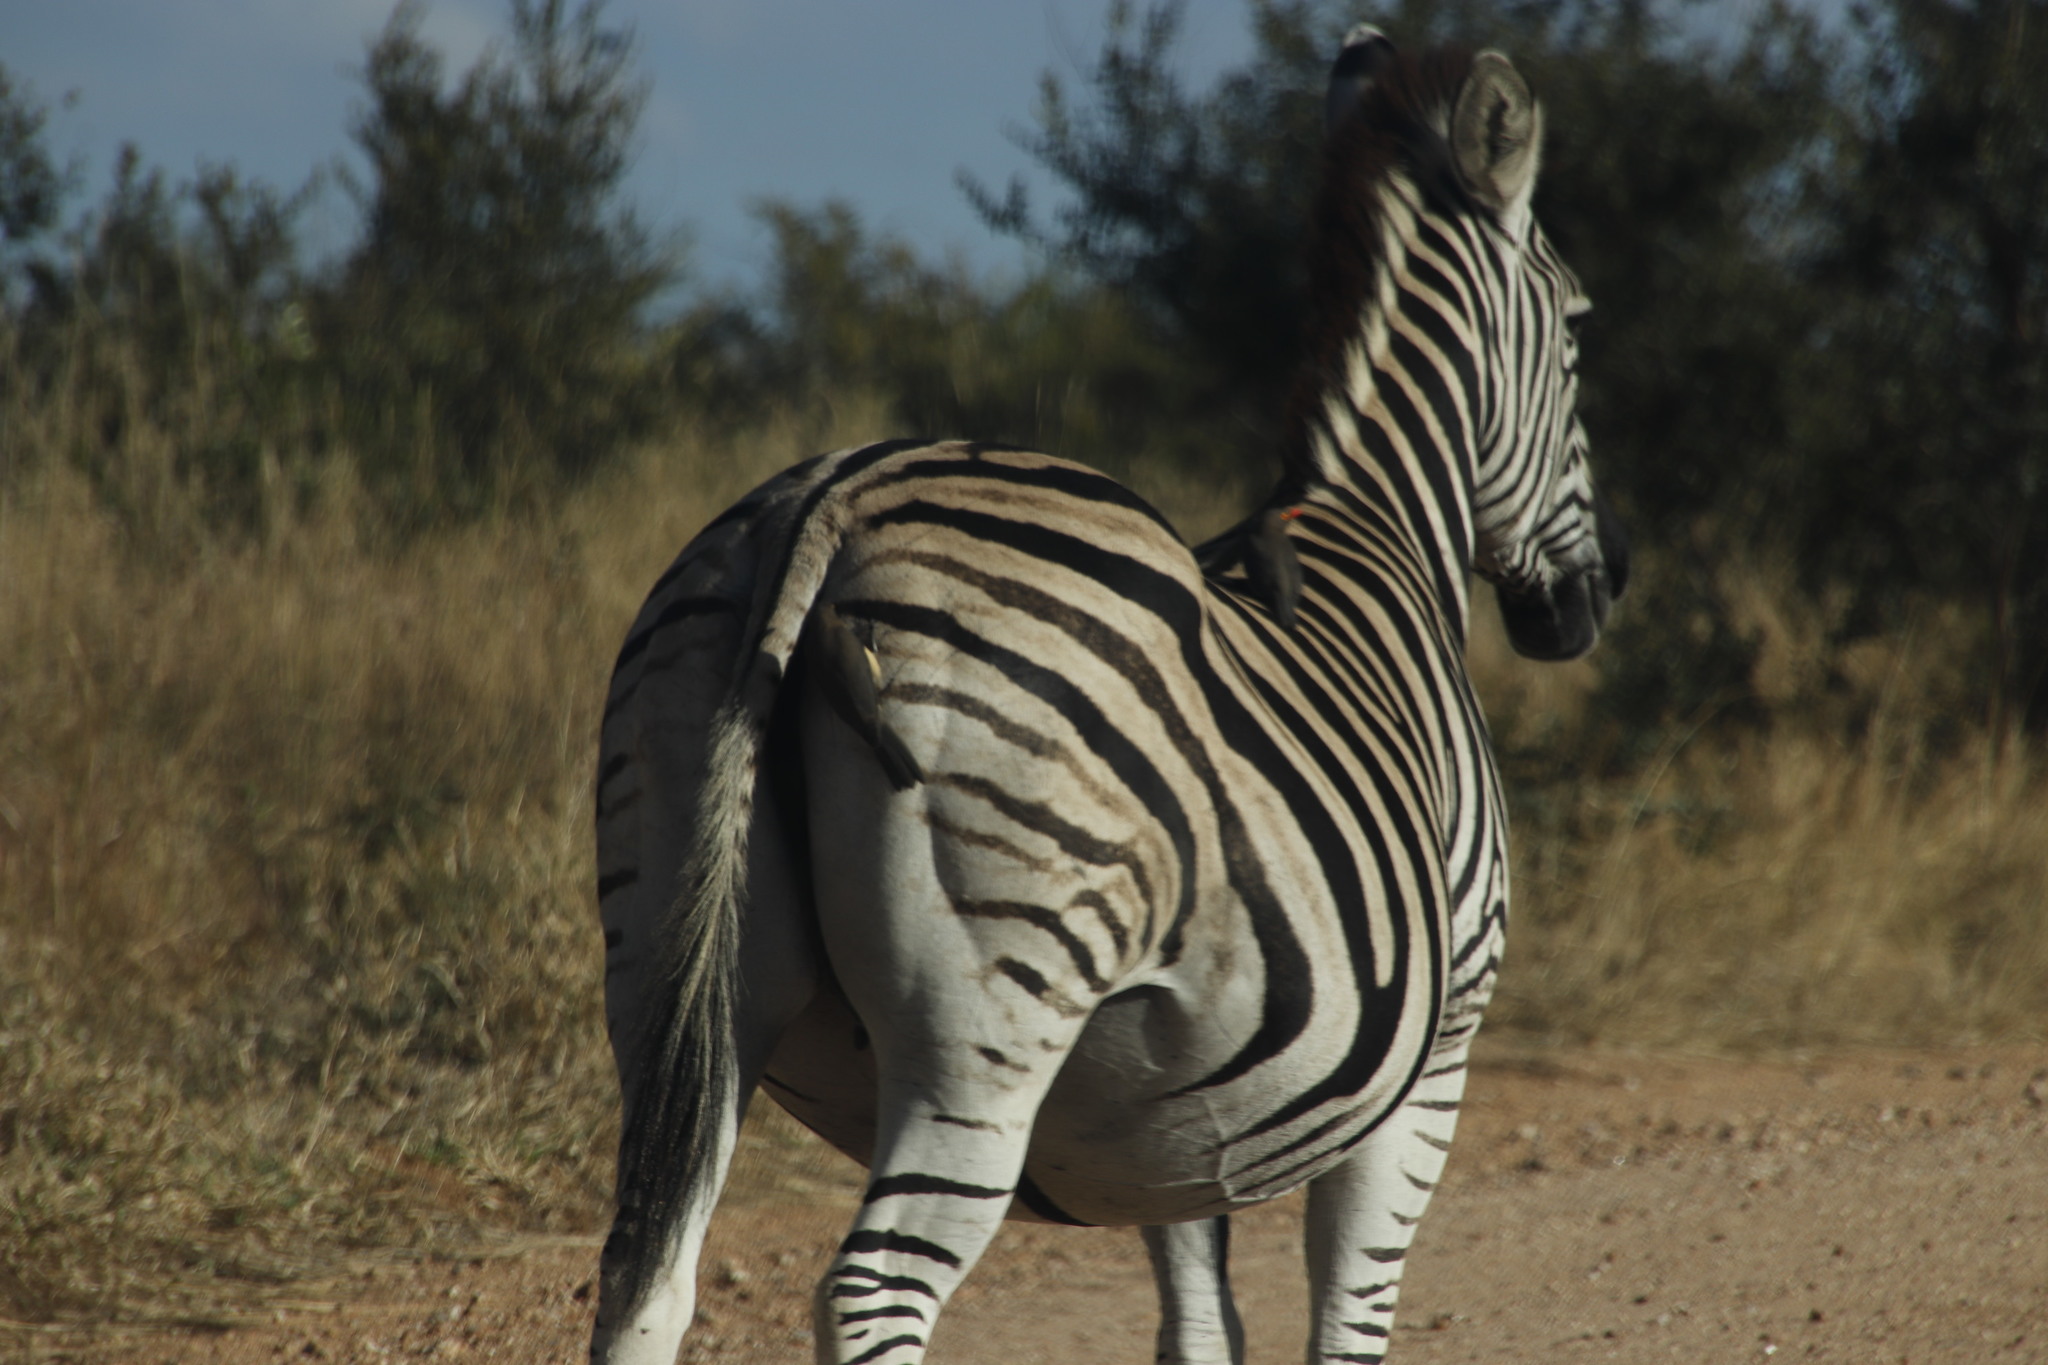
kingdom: Animalia
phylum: Chordata
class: Mammalia
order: Perissodactyla
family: Equidae
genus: Equus
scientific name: Equus quagga
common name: Plains zebra
